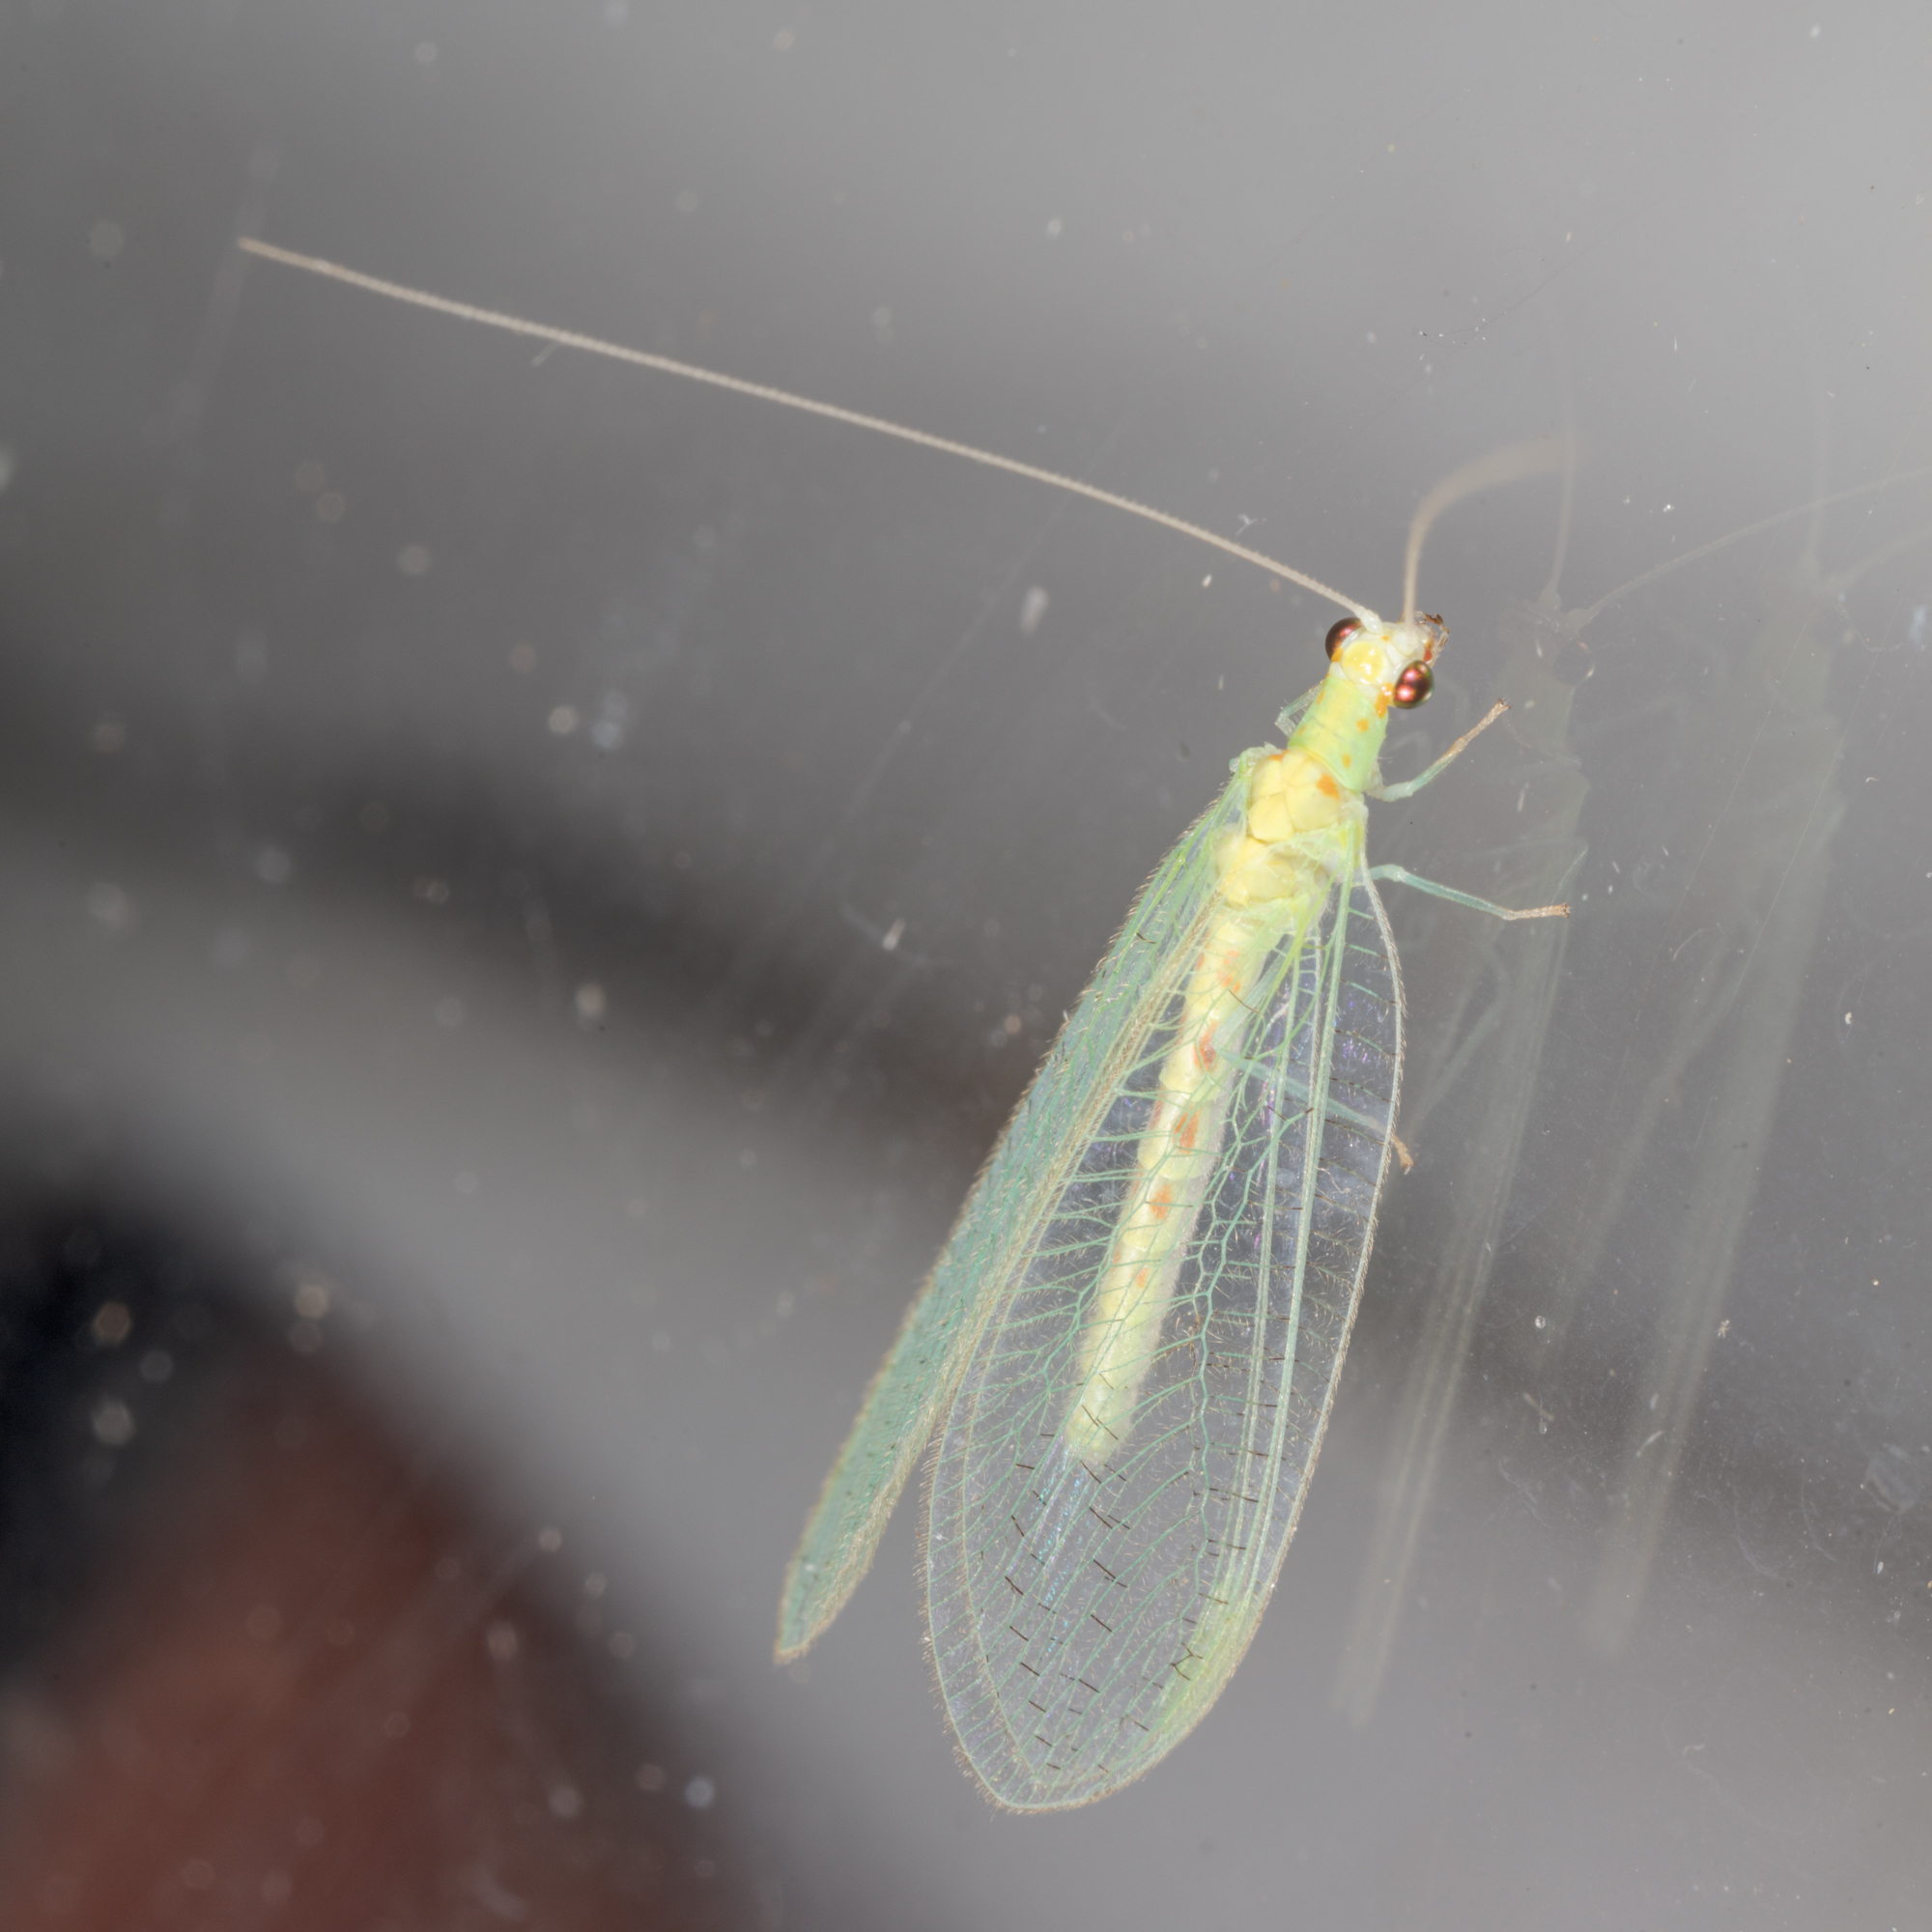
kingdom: Animalia
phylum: Arthropoda
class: Insecta
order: Neuroptera
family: Chrysopidae
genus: Chrysopa
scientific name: Chrysopa quadripunctata
